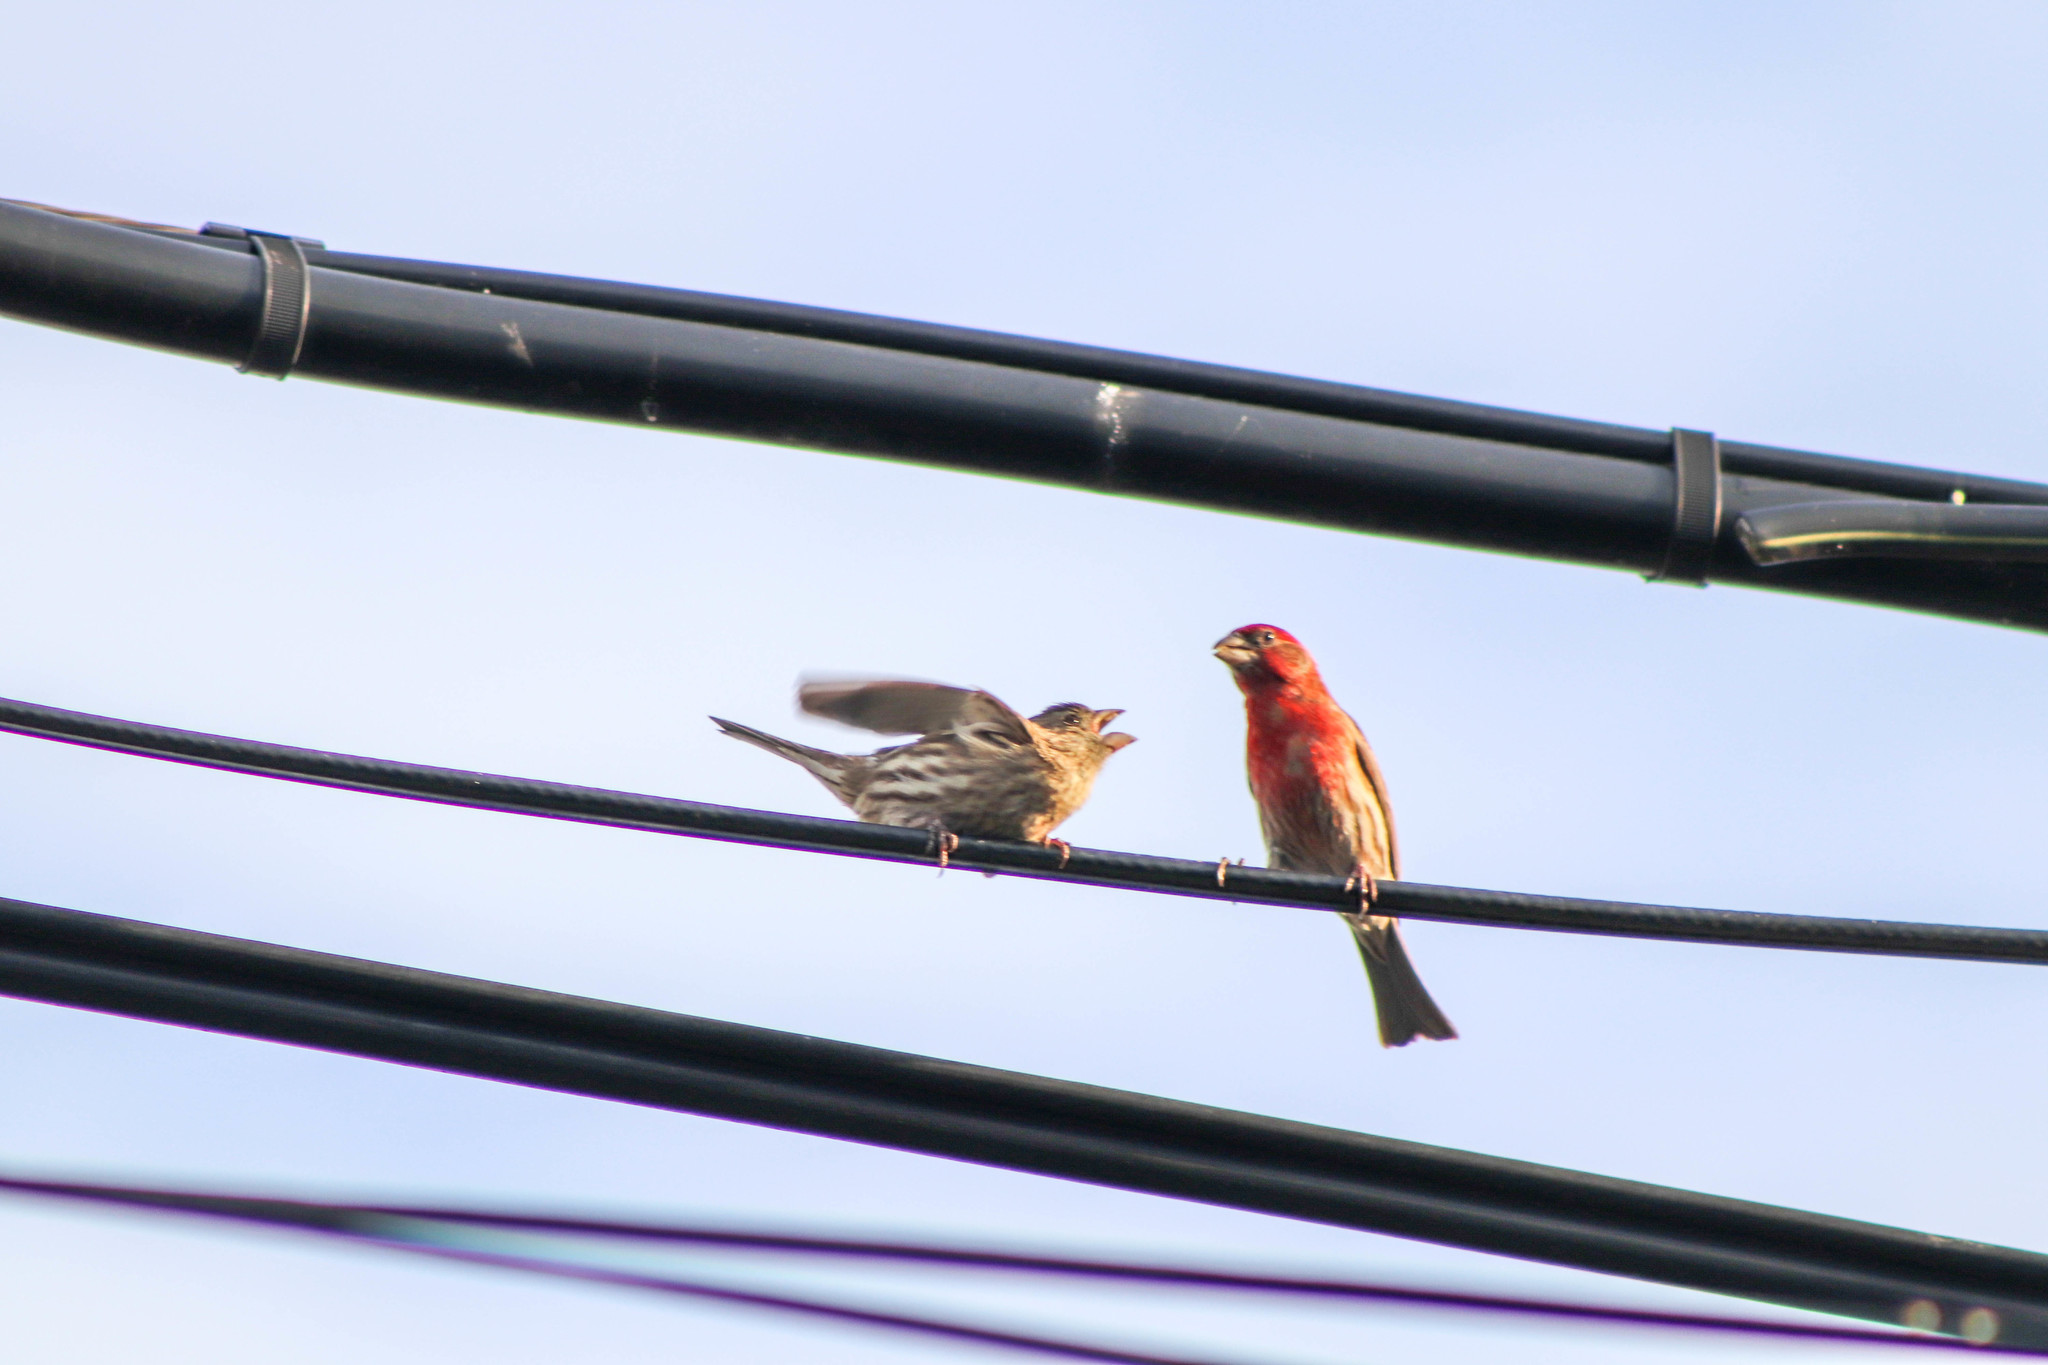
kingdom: Animalia
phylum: Chordata
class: Aves
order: Passeriformes
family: Fringillidae
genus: Haemorhous
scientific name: Haemorhous mexicanus
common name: House finch
